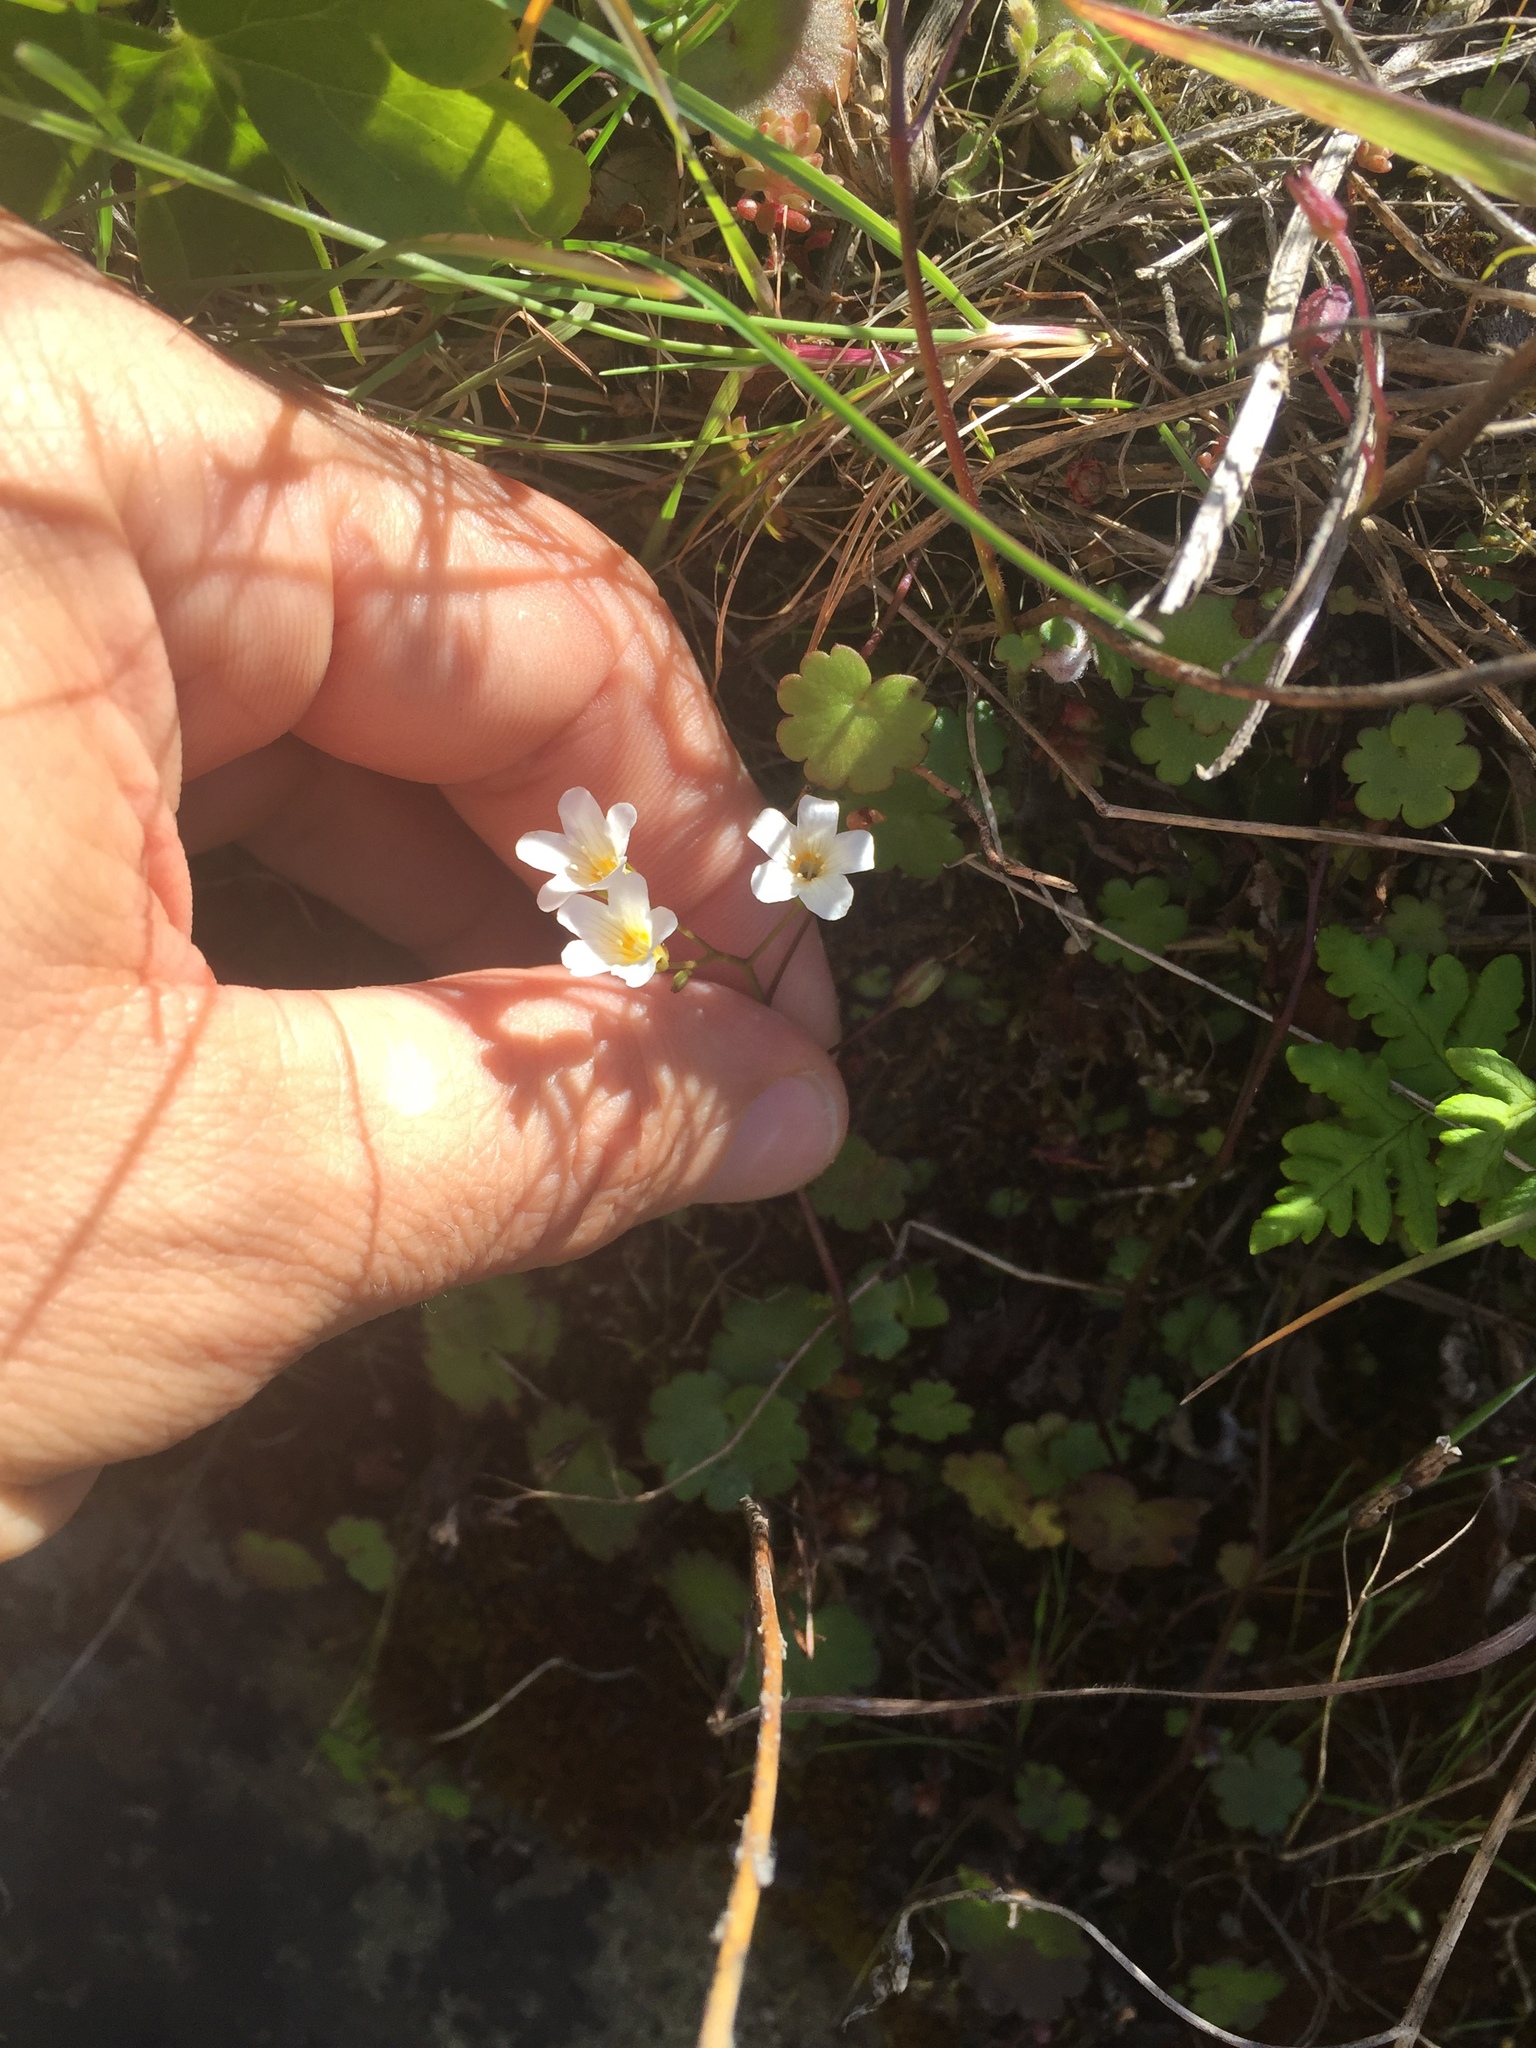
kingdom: Plantae
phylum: Tracheophyta
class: Magnoliopsida
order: Boraginales
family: Hydrophyllaceae
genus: Romanzoffia
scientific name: Romanzoffia californica
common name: California mistmaiden
